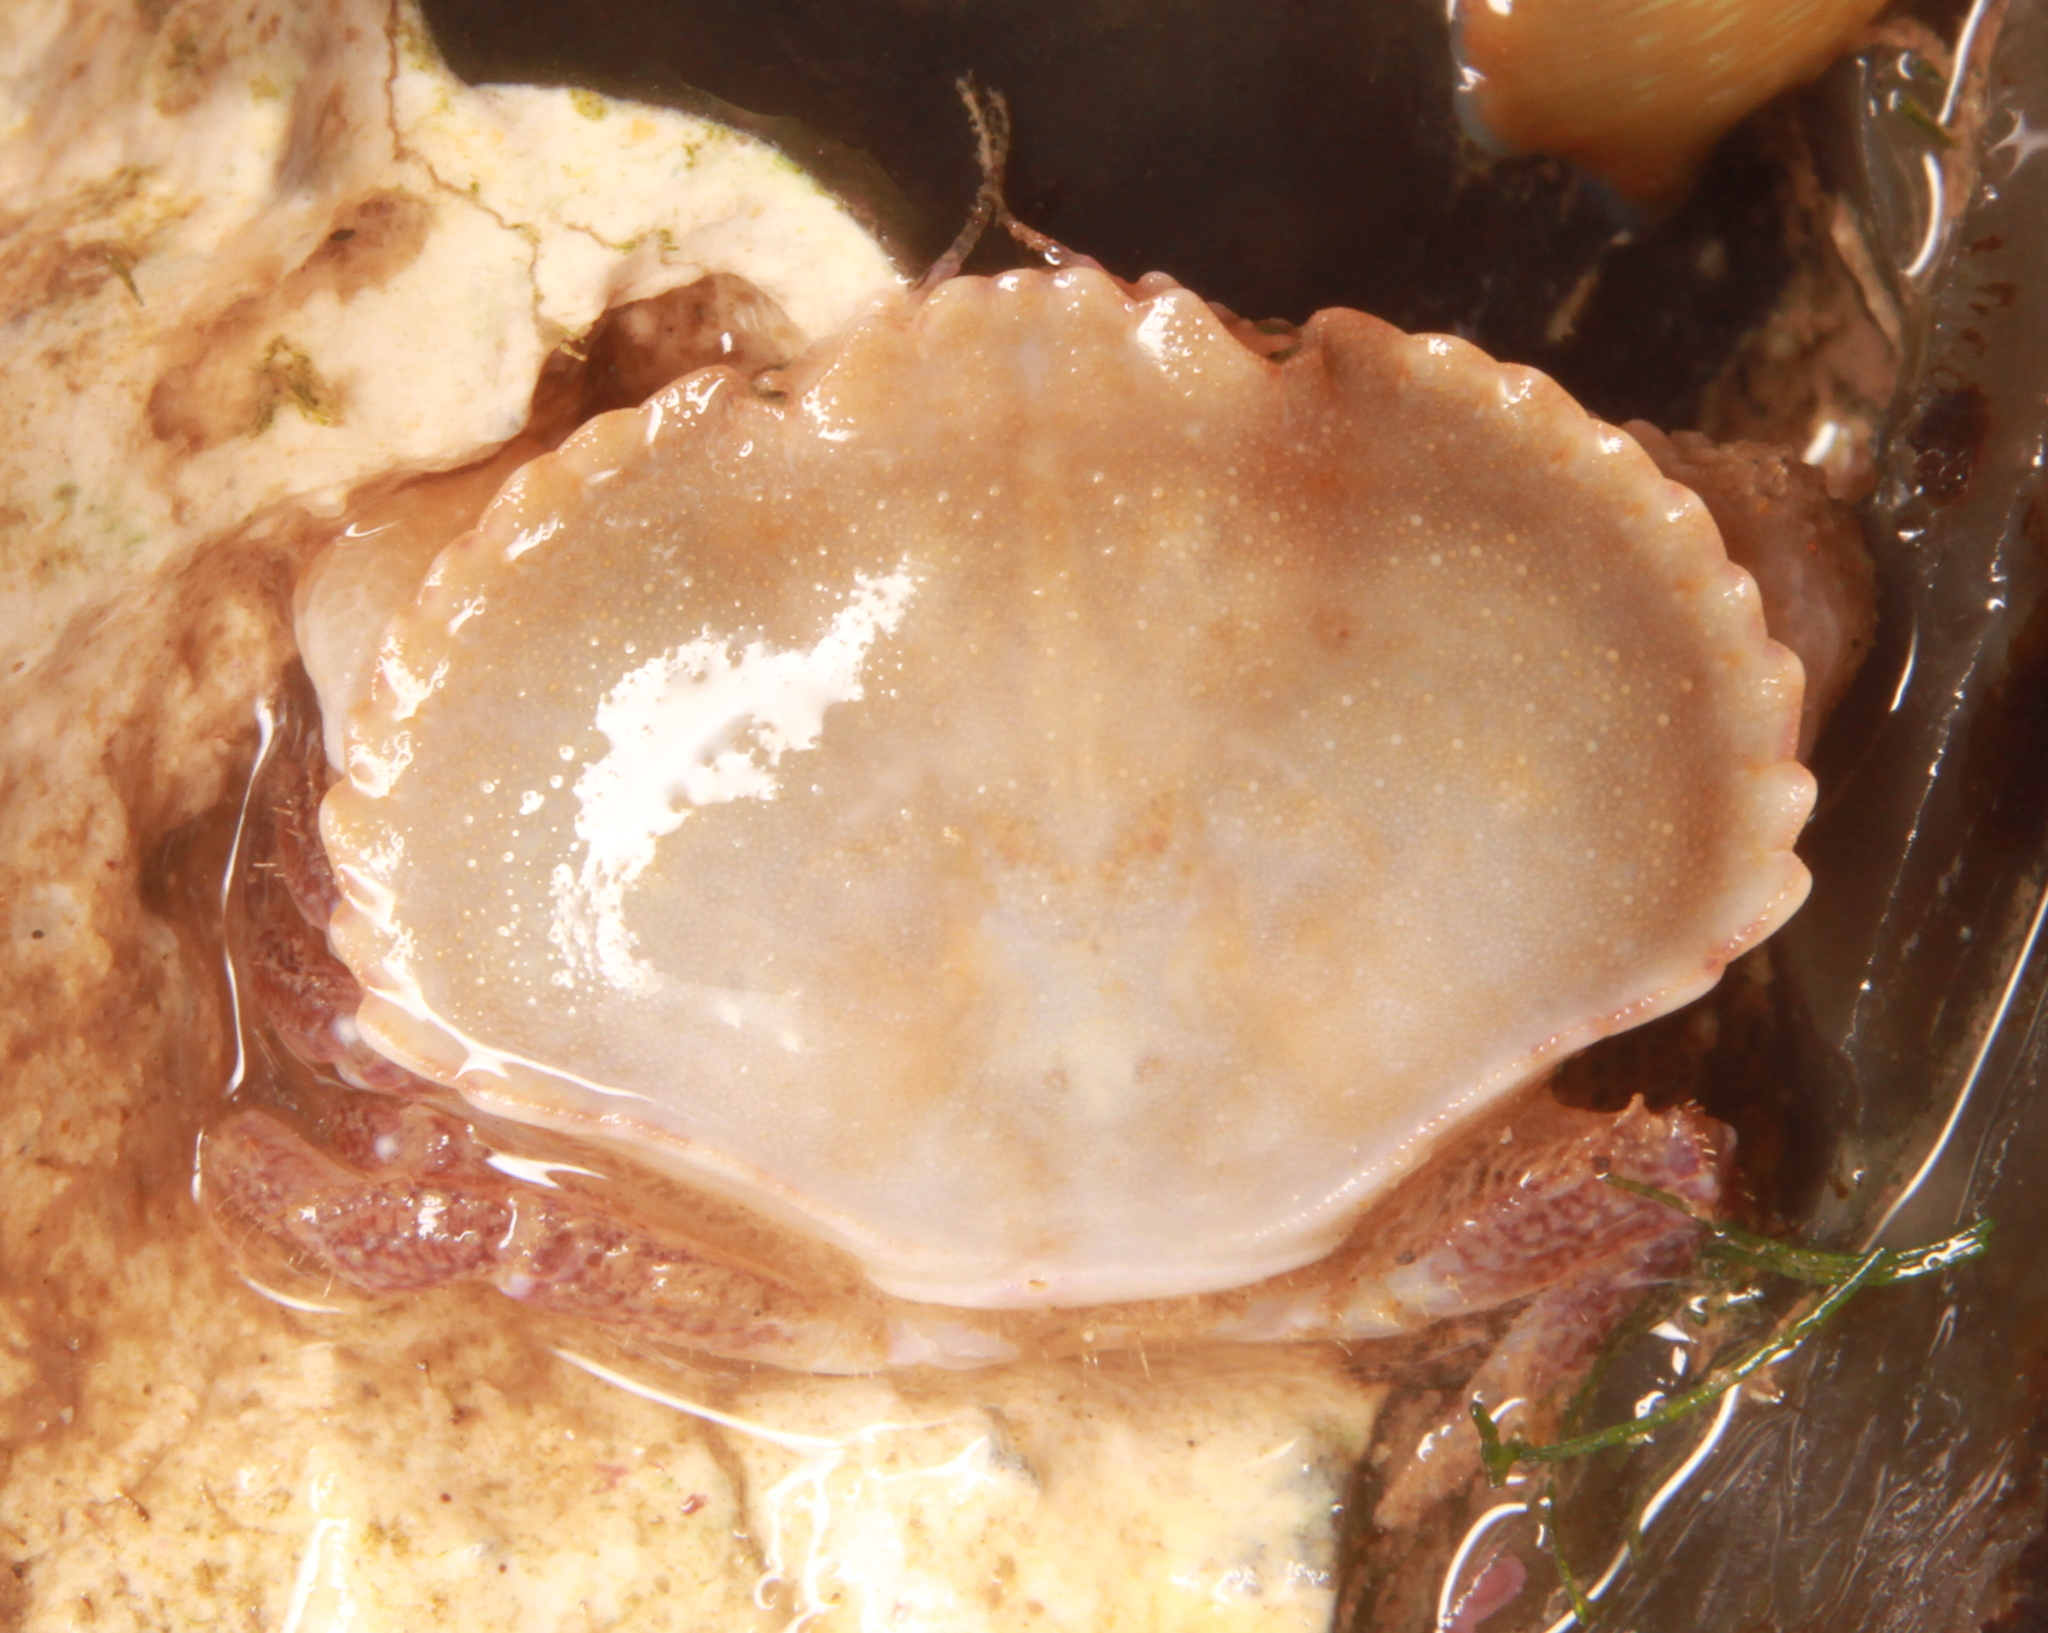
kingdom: Animalia
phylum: Arthropoda
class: Malacostraca
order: Decapoda
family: Cancridae
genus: Cancer
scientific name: Cancer pagurus
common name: Edible crab
